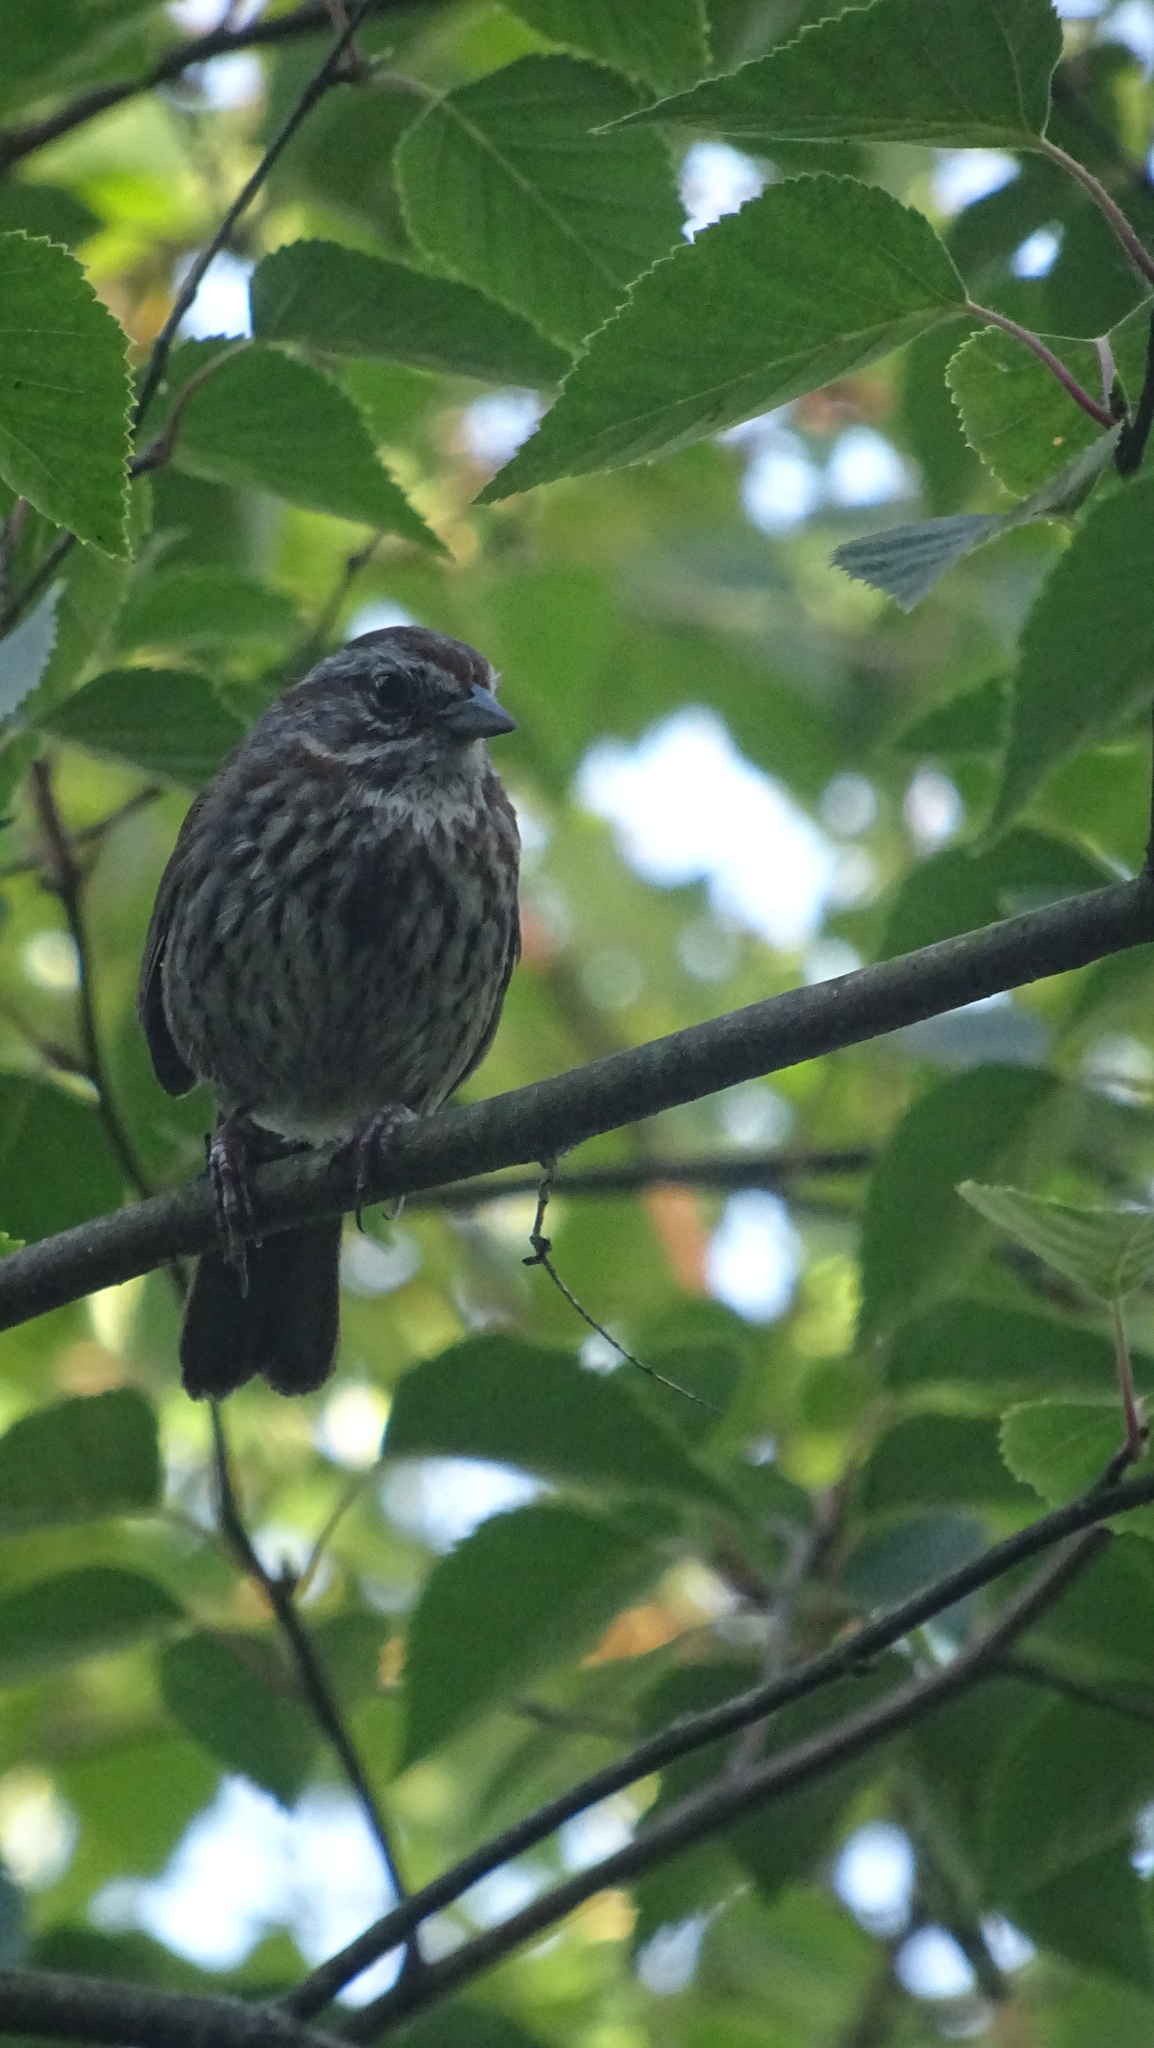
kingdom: Animalia
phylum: Chordata
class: Aves
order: Passeriformes
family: Passerellidae
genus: Melospiza
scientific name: Melospiza melodia
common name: Song sparrow
